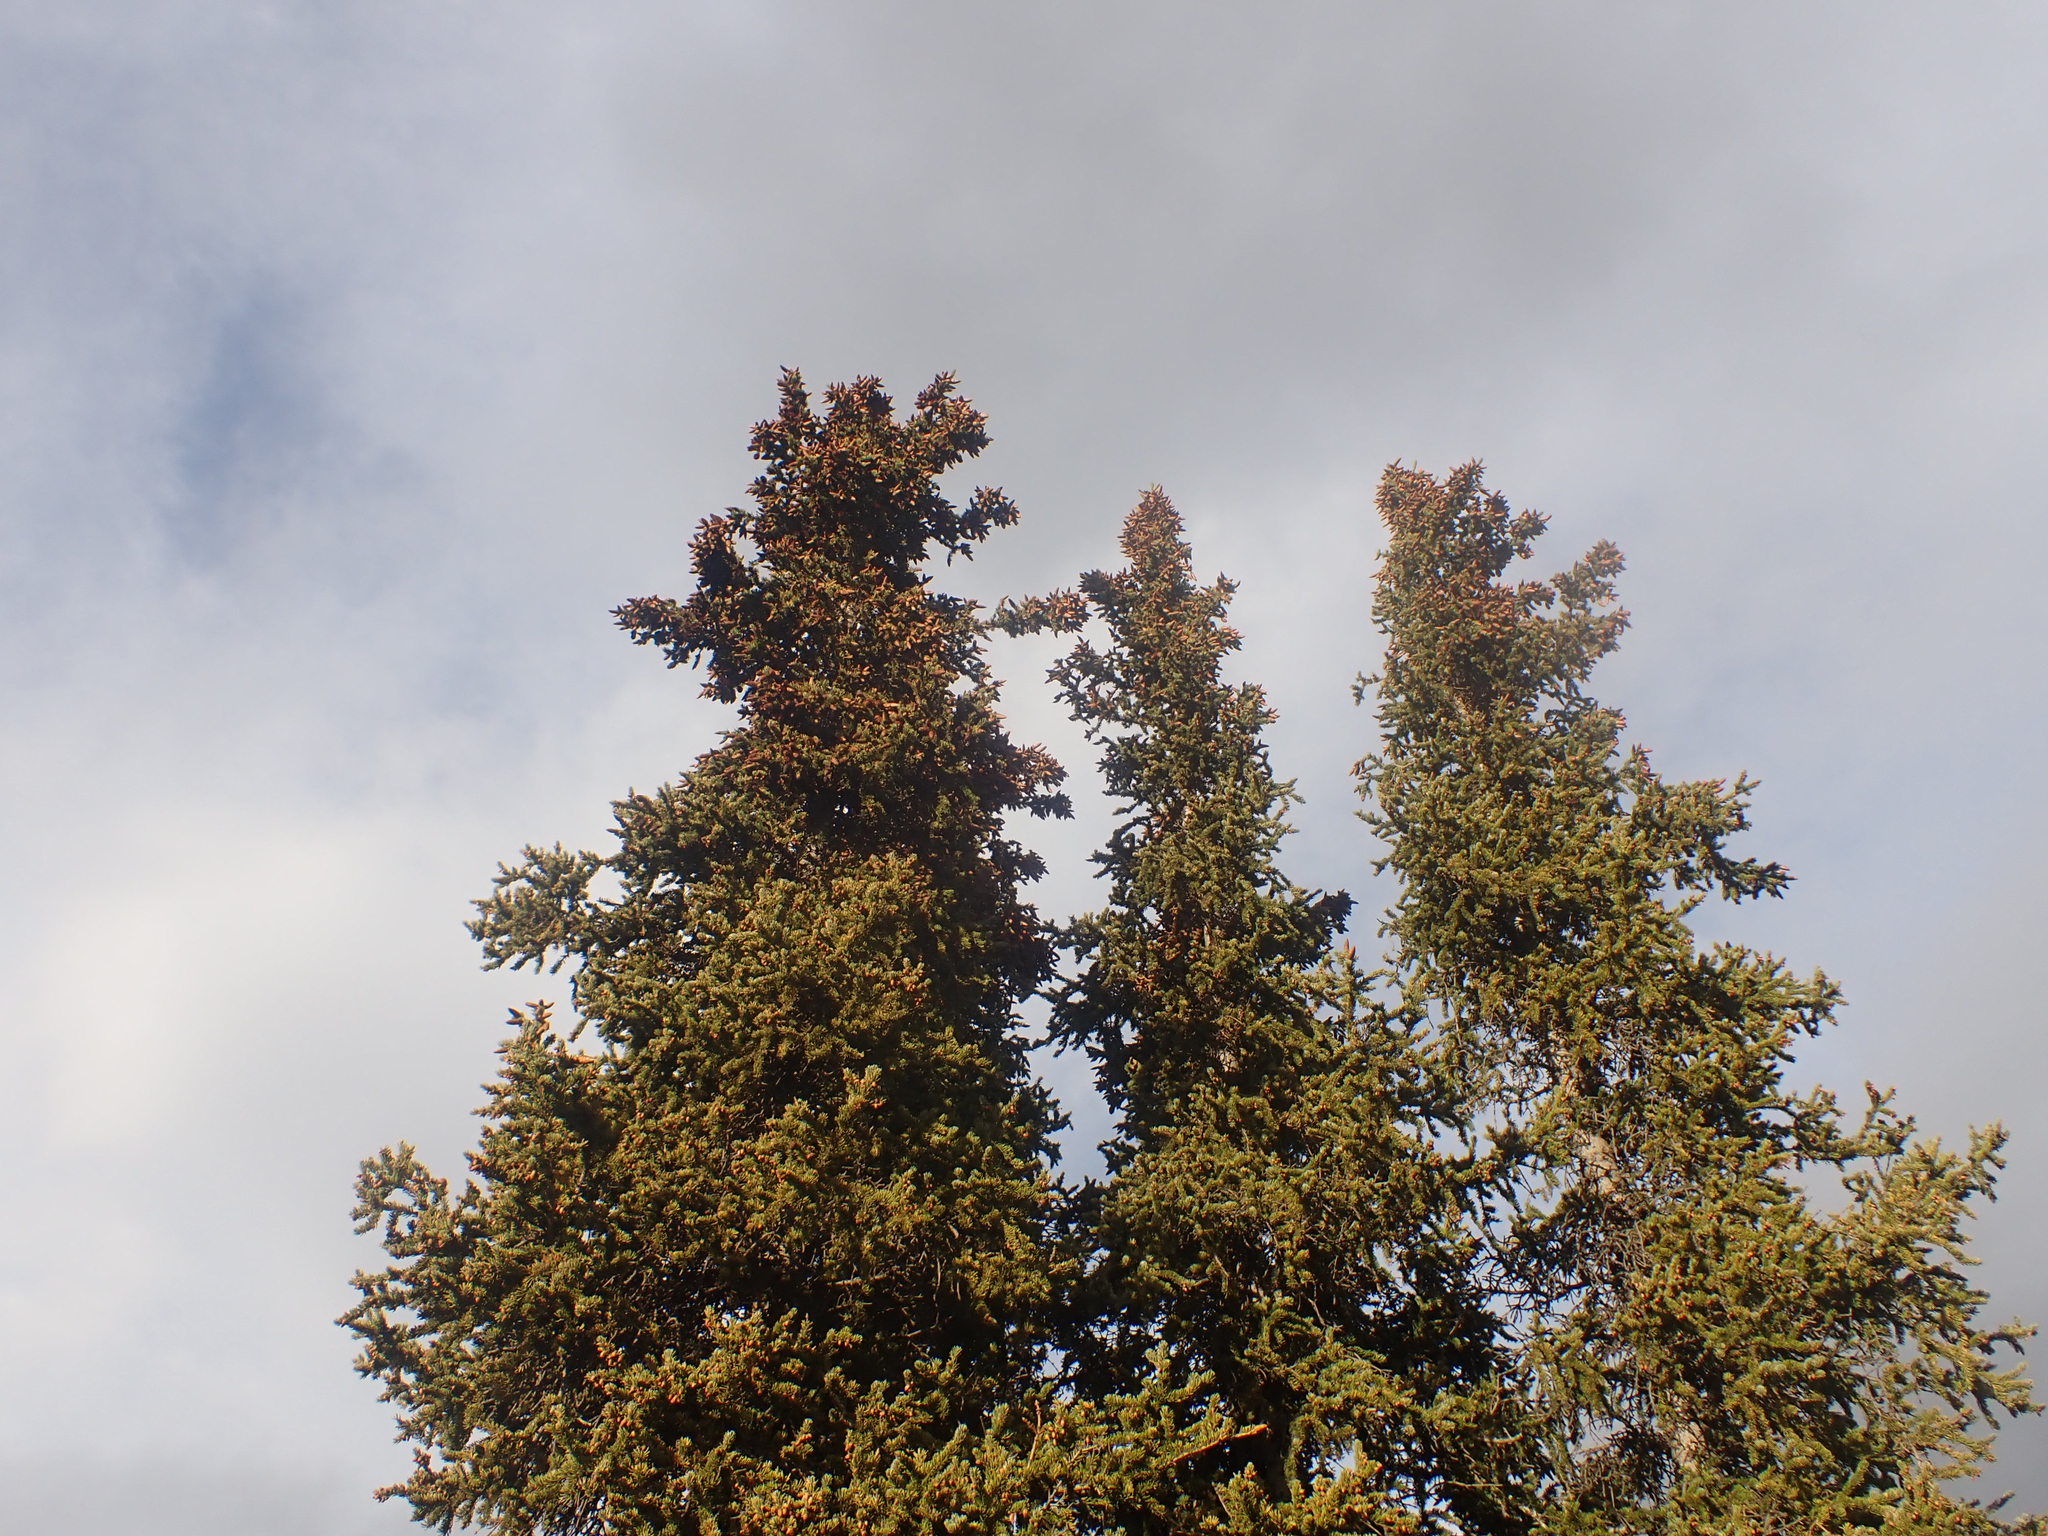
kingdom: Plantae
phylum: Tracheophyta
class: Pinopsida
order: Pinales
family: Pinaceae
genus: Picea
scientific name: Picea glauca
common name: White spruce
